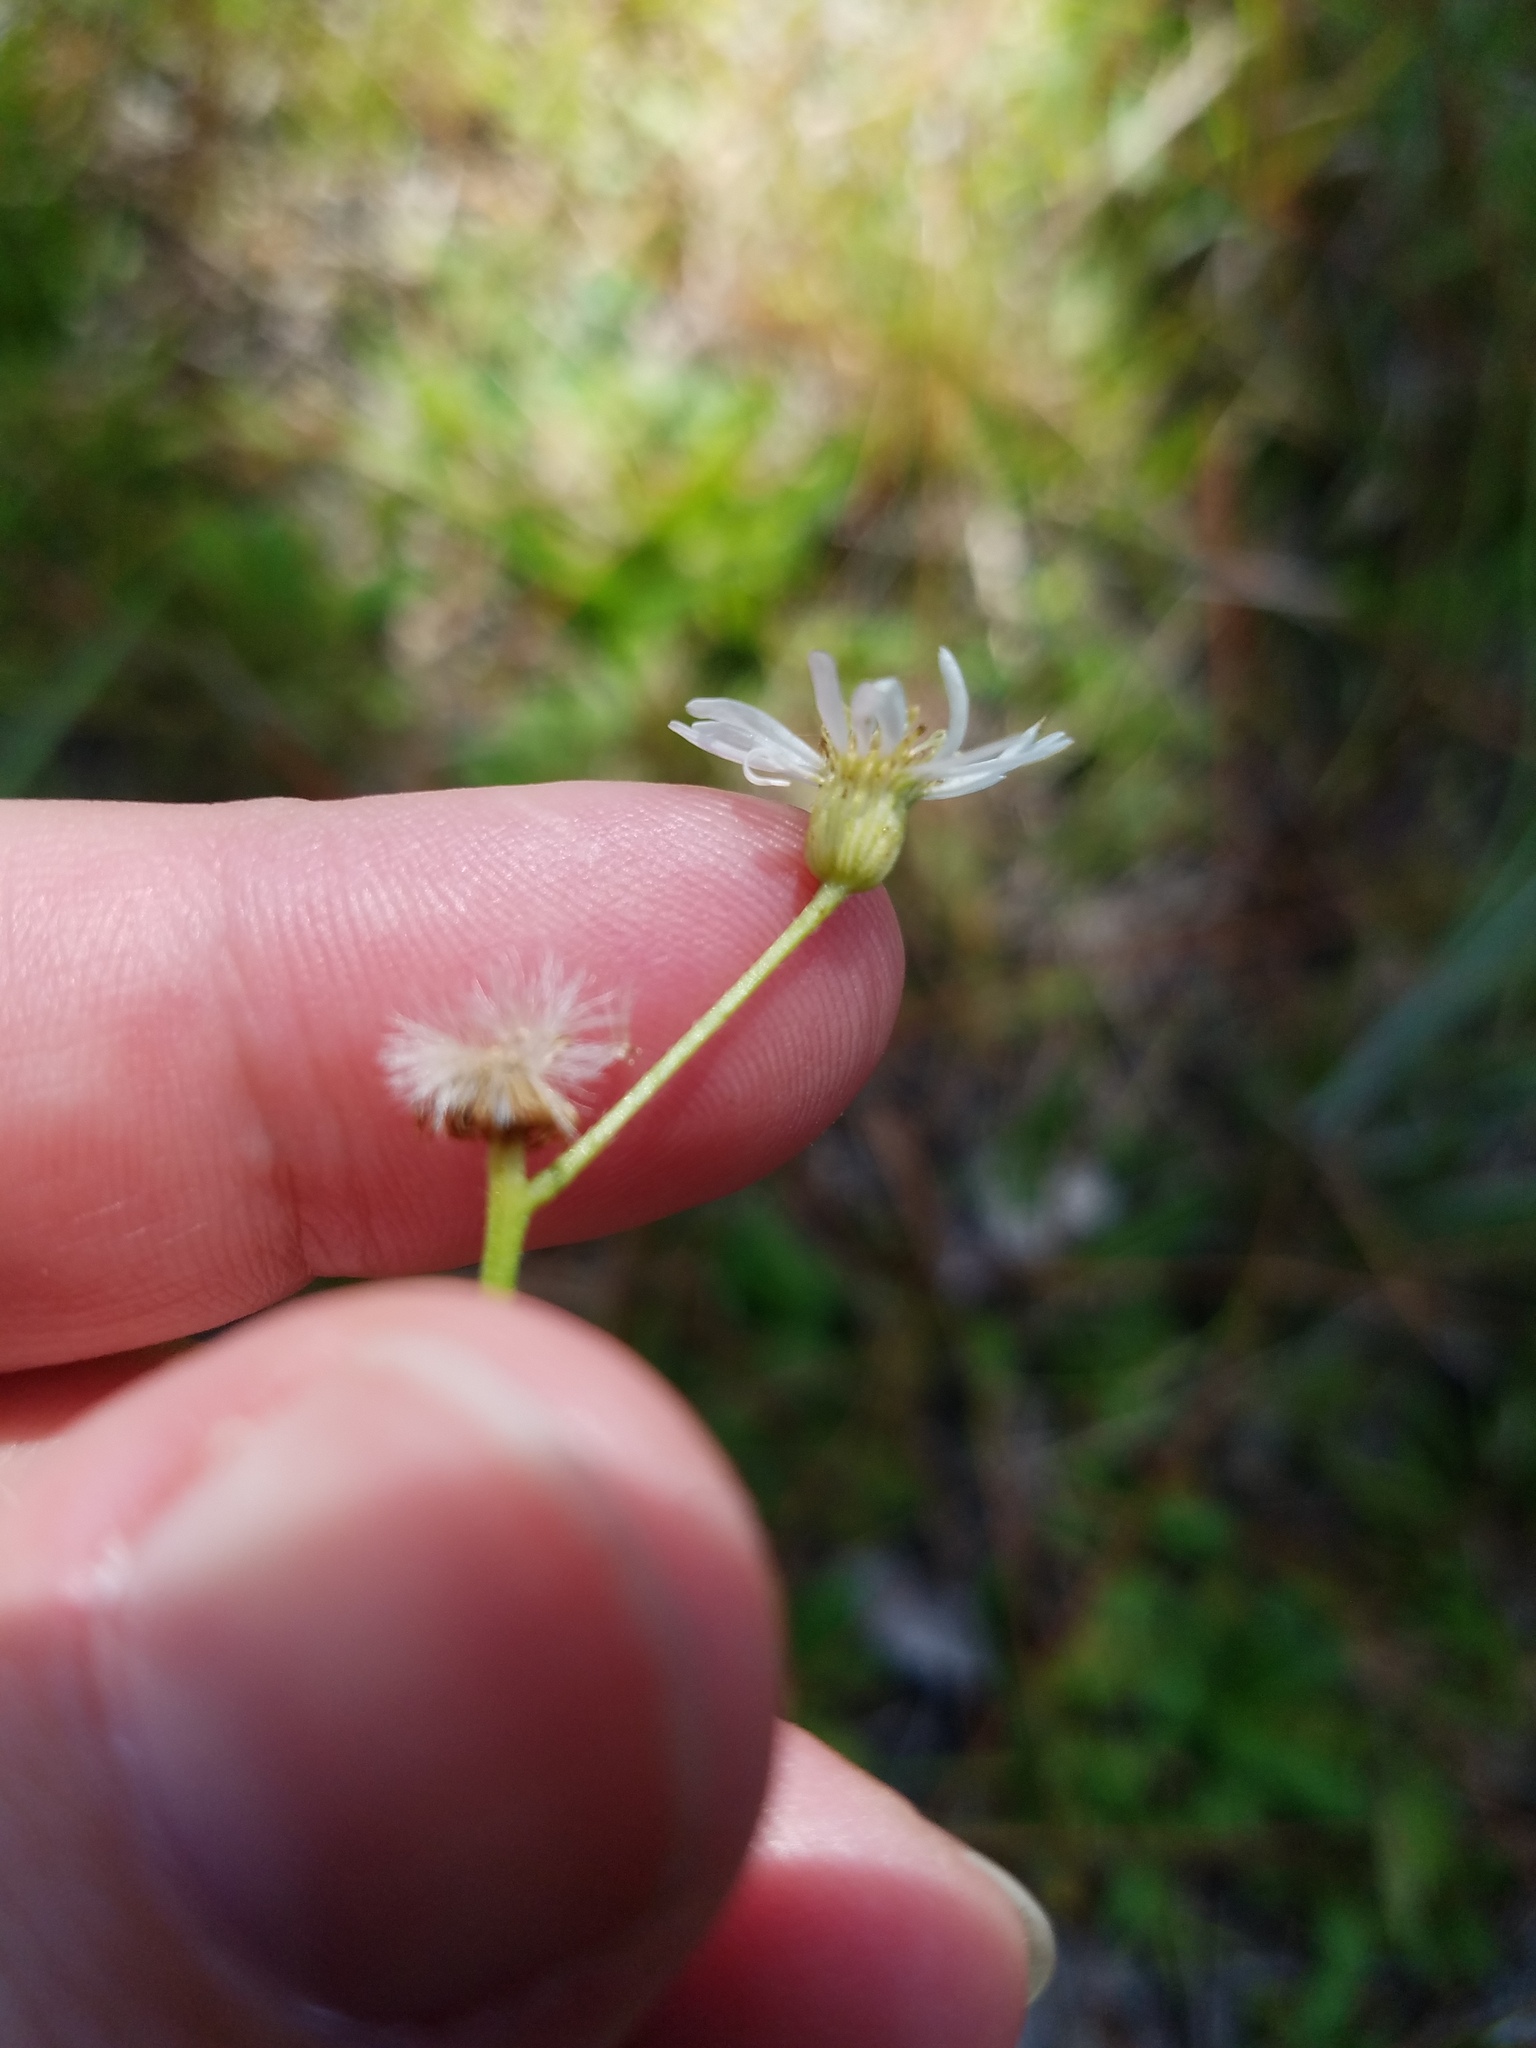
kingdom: Plantae
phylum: Tracheophyta
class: Magnoliopsida
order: Asterales
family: Asteraceae
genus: Erigeron
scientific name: Erigeron vernus
